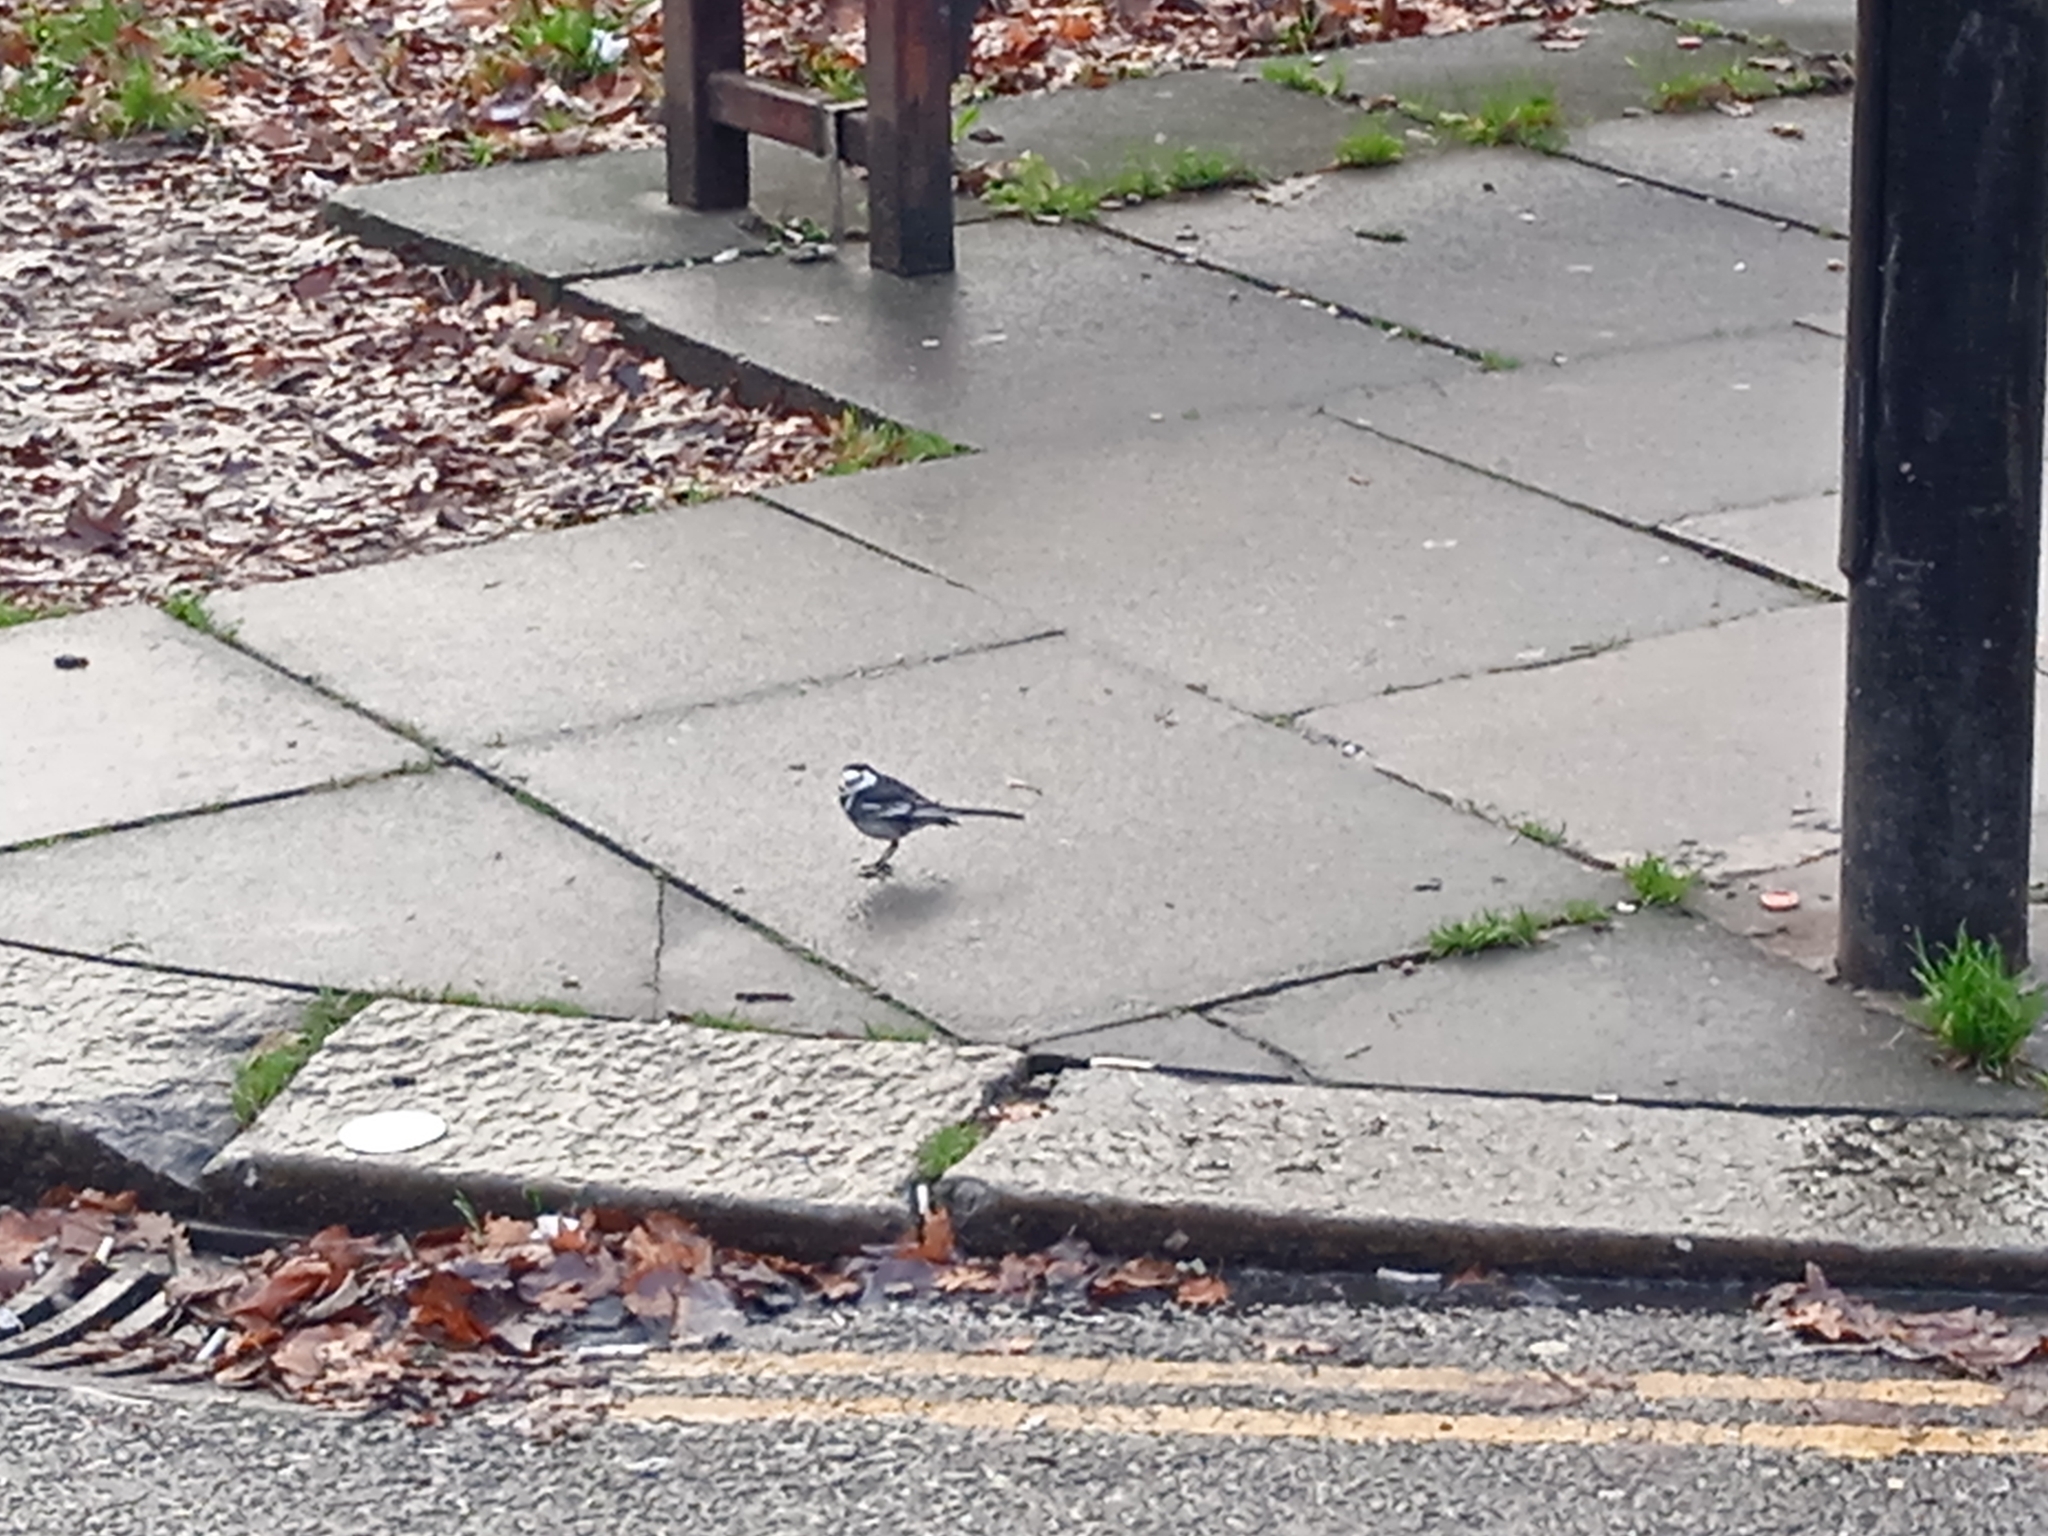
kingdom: Animalia
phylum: Chordata
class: Aves
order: Passeriformes
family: Motacillidae
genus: Motacilla
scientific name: Motacilla alba
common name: White wagtail
